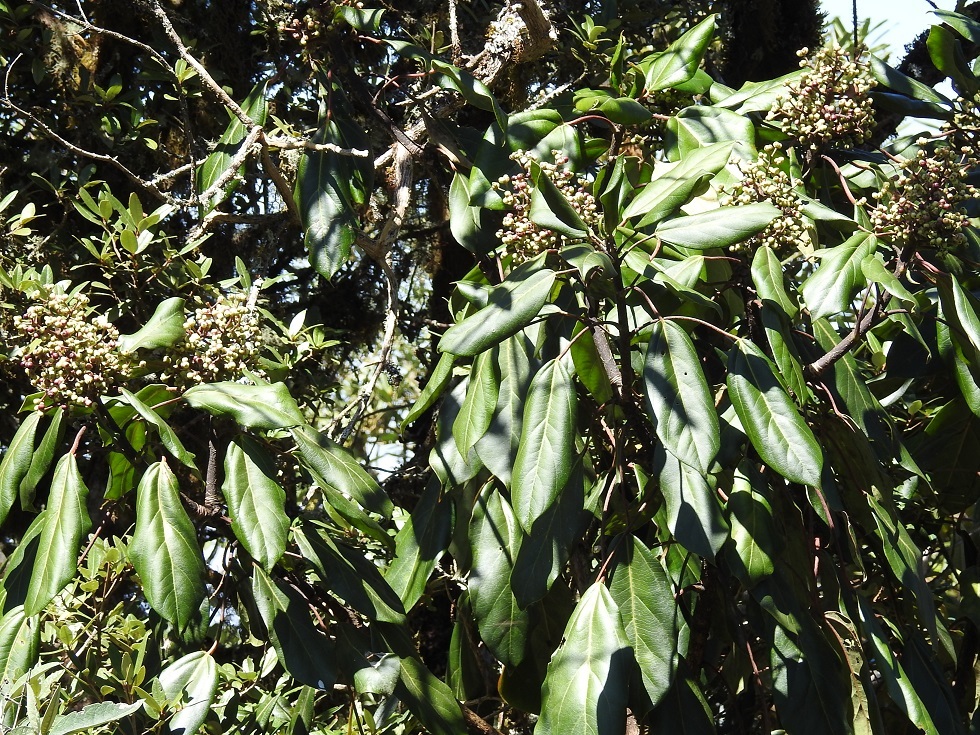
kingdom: Plantae
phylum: Tracheophyta
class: Magnoliopsida
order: Apiales
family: Araliaceae
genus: Oreopanax
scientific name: Oreopanax arcanus
